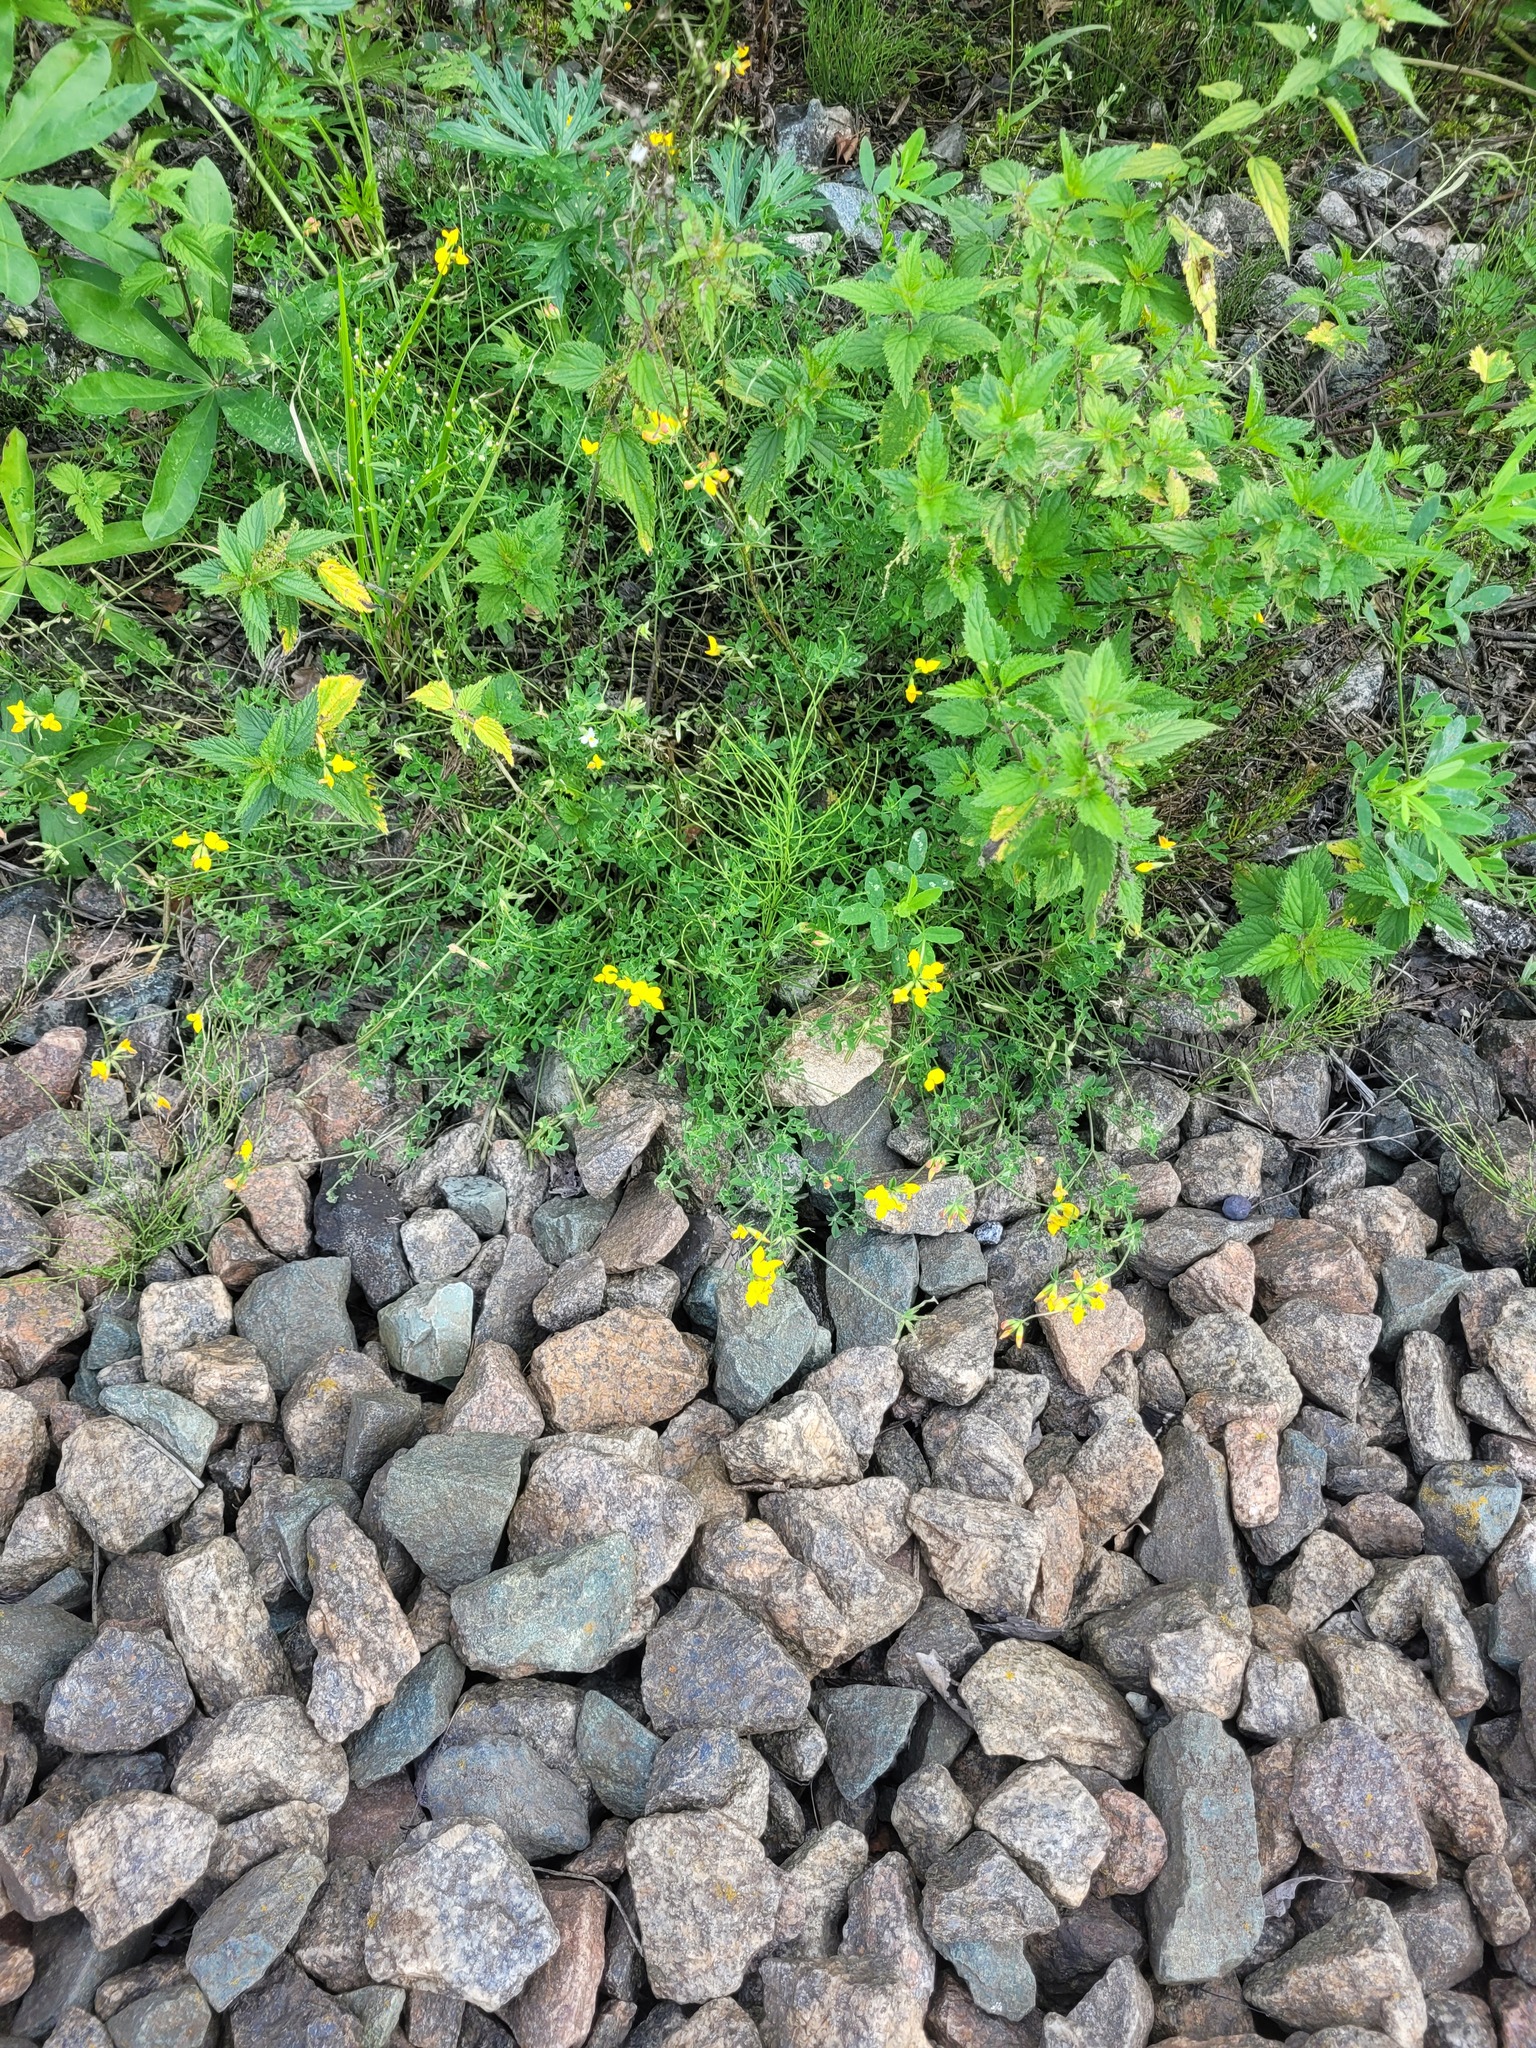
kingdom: Plantae
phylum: Tracheophyta
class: Magnoliopsida
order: Fabales
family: Fabaceae
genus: Lotus
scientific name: Lotus corniculatus
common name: Common bird's-foot-trefoil
